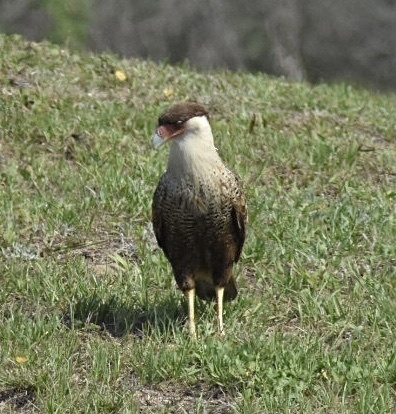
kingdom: Animalia
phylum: Chordata
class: Aves
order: Falconiformes
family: Falconidae
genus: Caracara
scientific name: Caracara plancus
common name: Southern caracara
